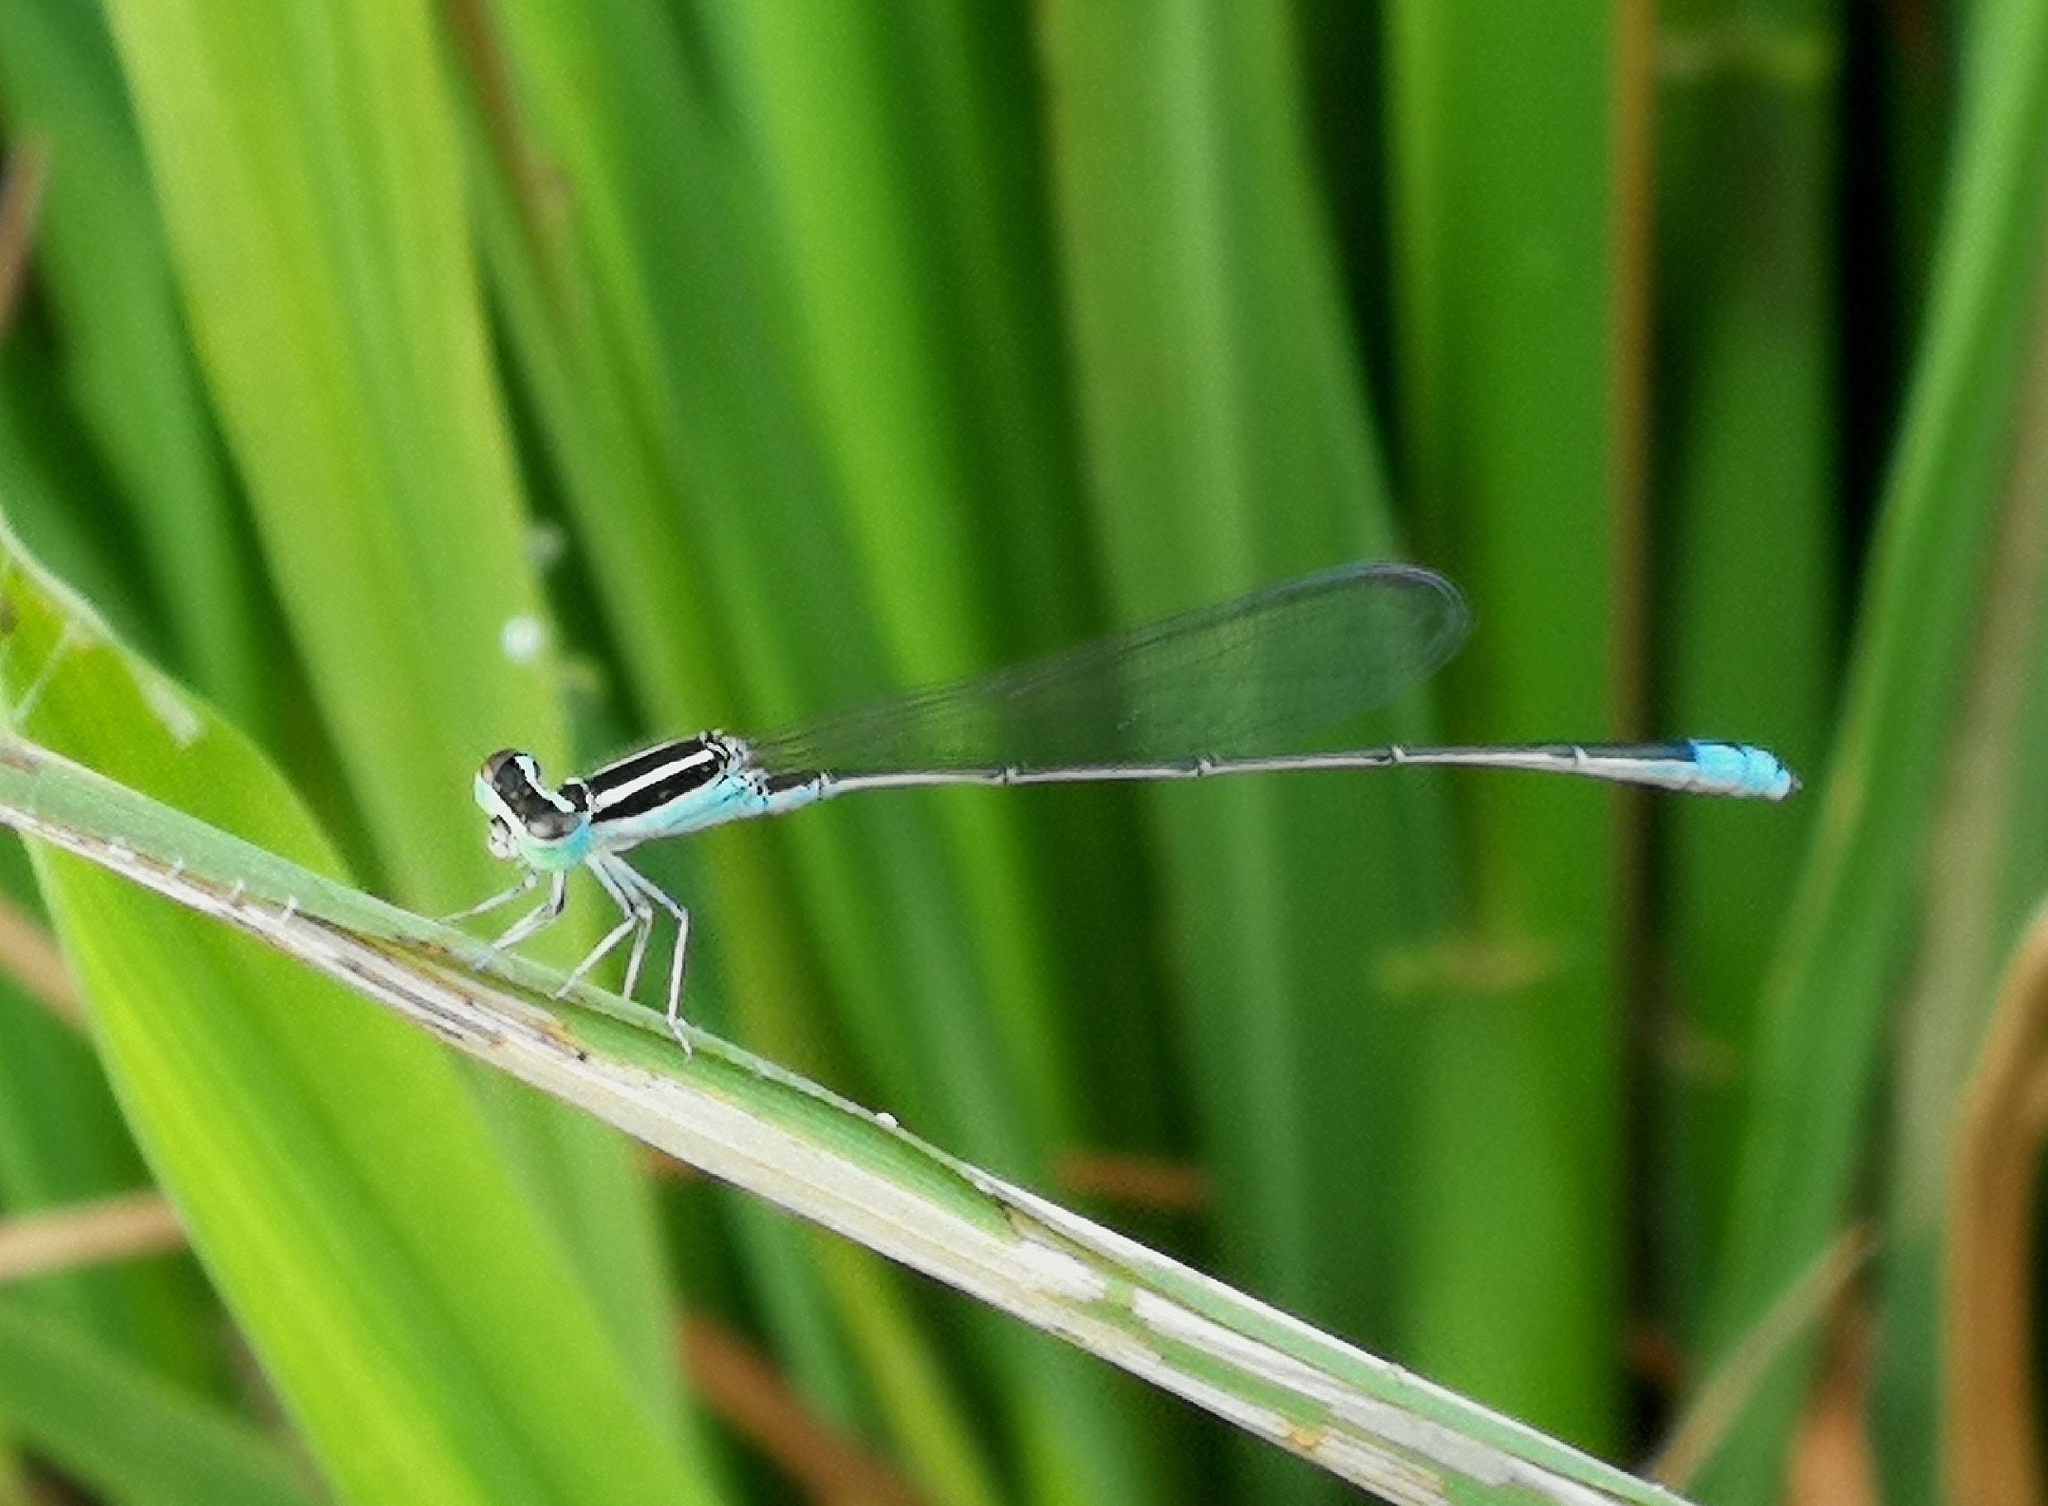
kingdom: Animalia
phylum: Arthropoda
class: Insecta
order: Odonata
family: Coenagrionidae
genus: Aciagrion
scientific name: Aciagrion occidentale
